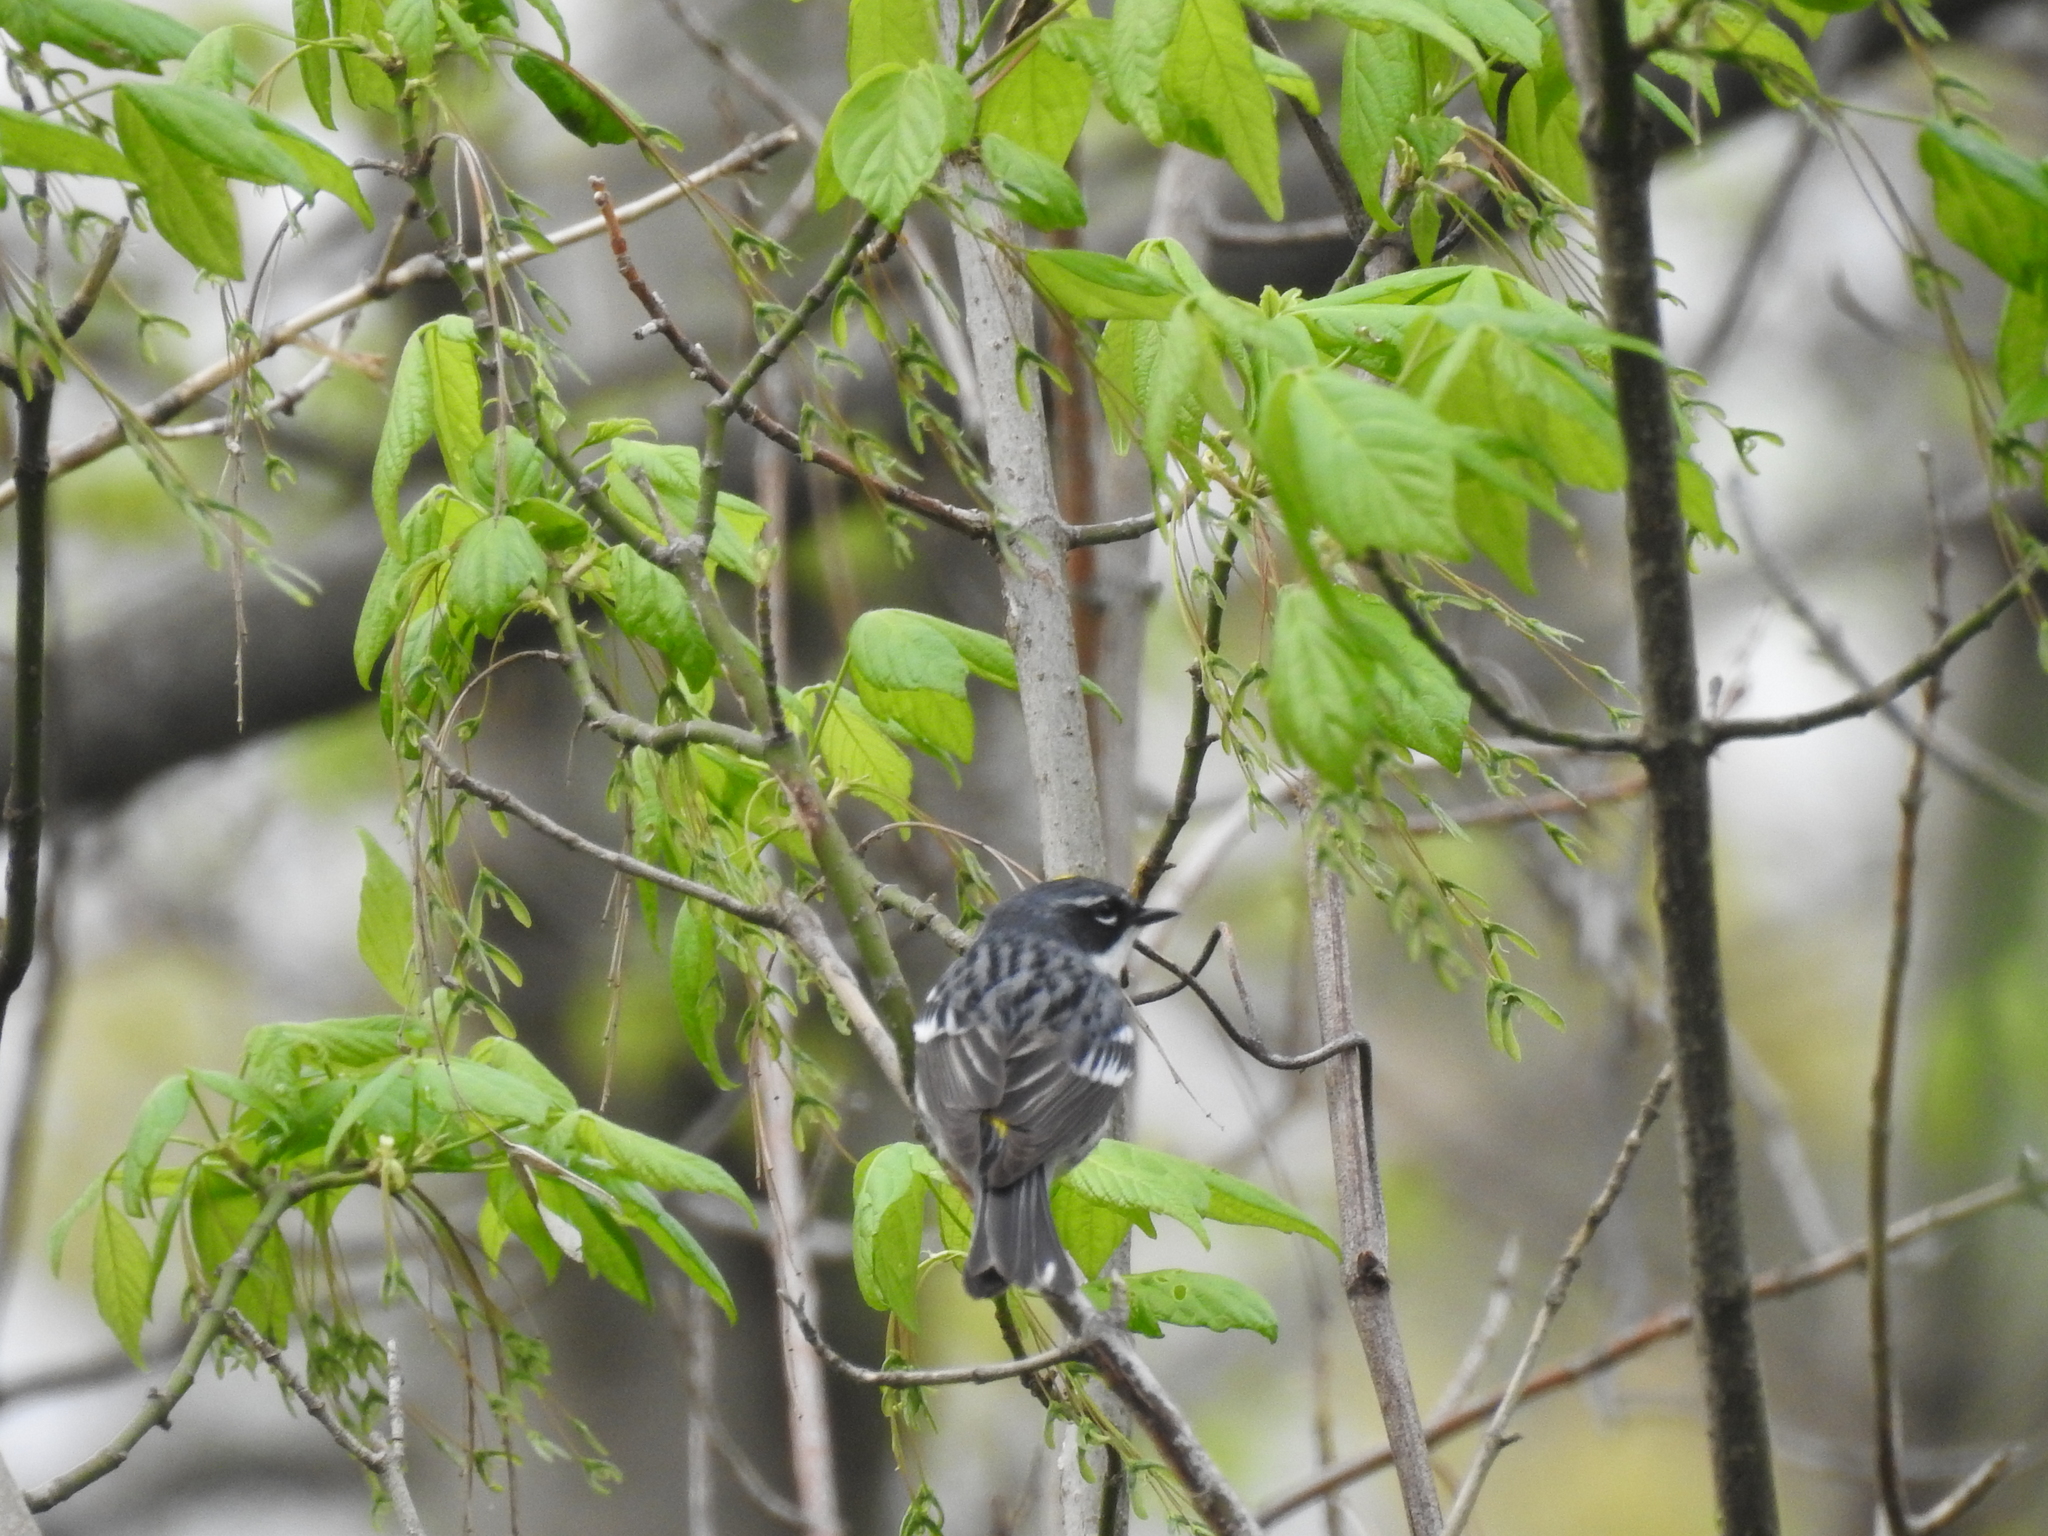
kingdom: Animalia
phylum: Chordata
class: Aves
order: Passeriformes
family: Parulidae
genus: Setophaga
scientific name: Setophaga coronata
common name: Myrtle warbler
